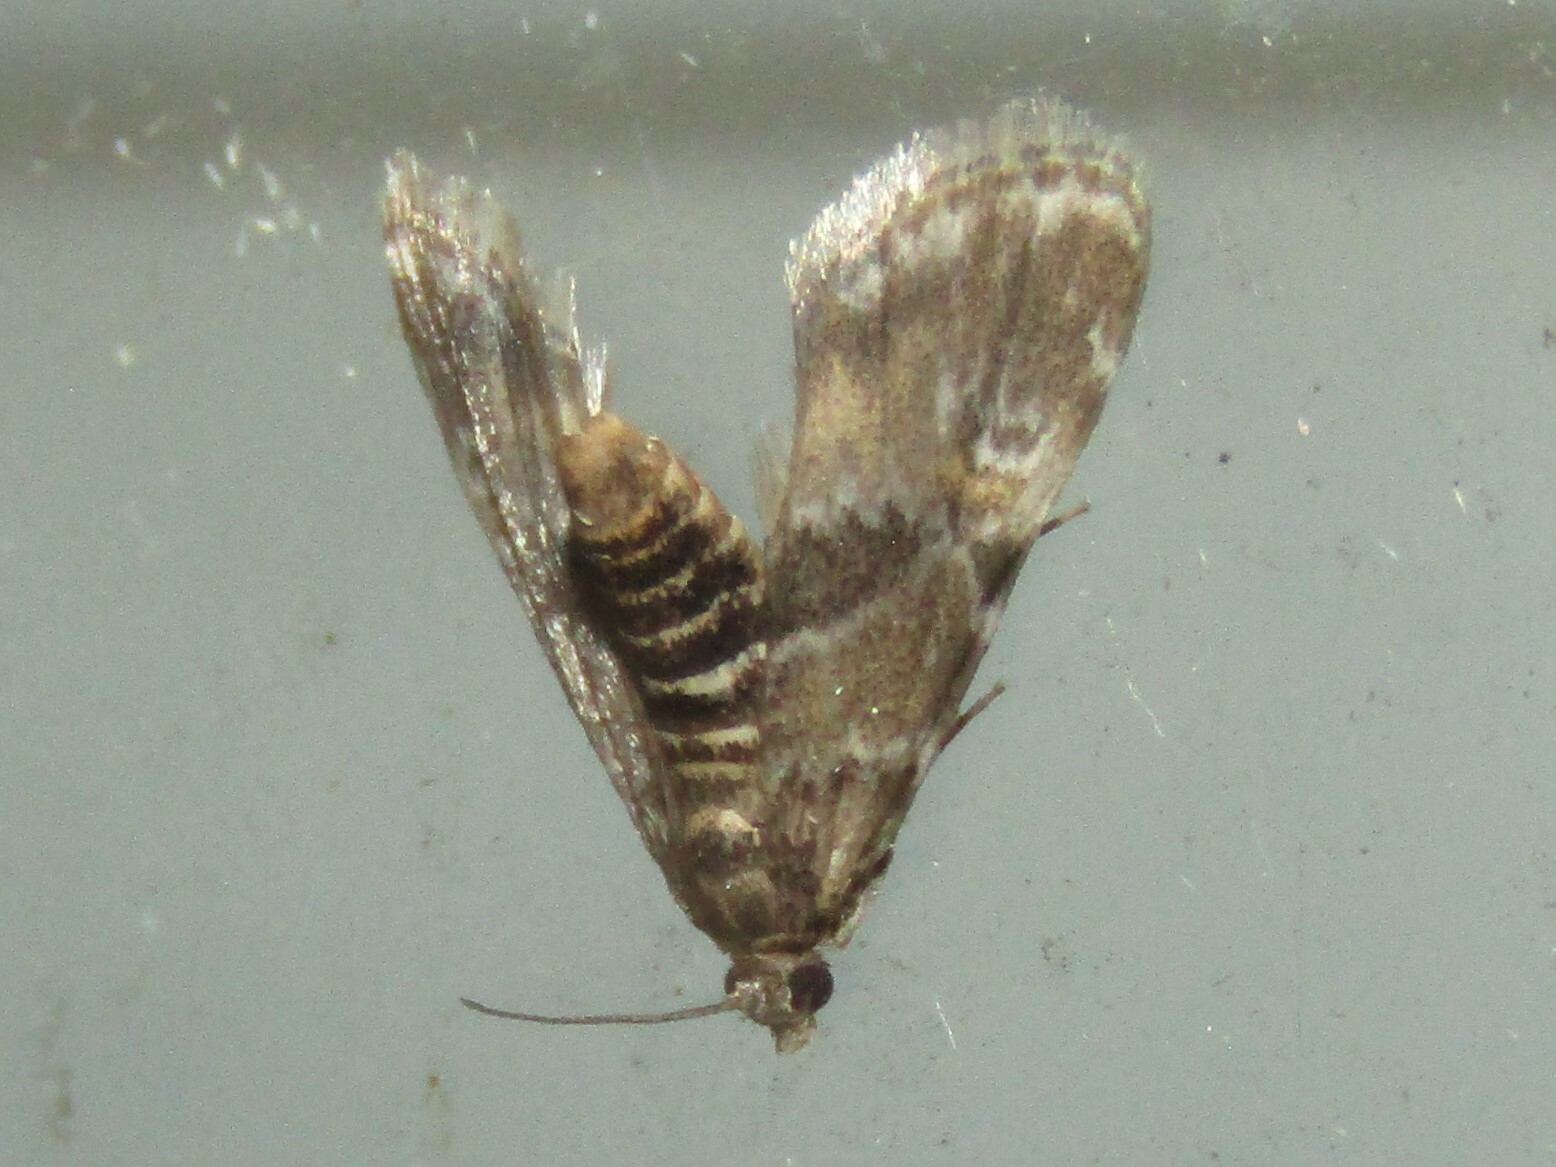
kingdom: Animalia
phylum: Arthropoda
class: Insecta
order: Lepidoptera
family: Crambidae
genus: Elophila
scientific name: Elophila obliteralis
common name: Waterlily leafcutter moth
